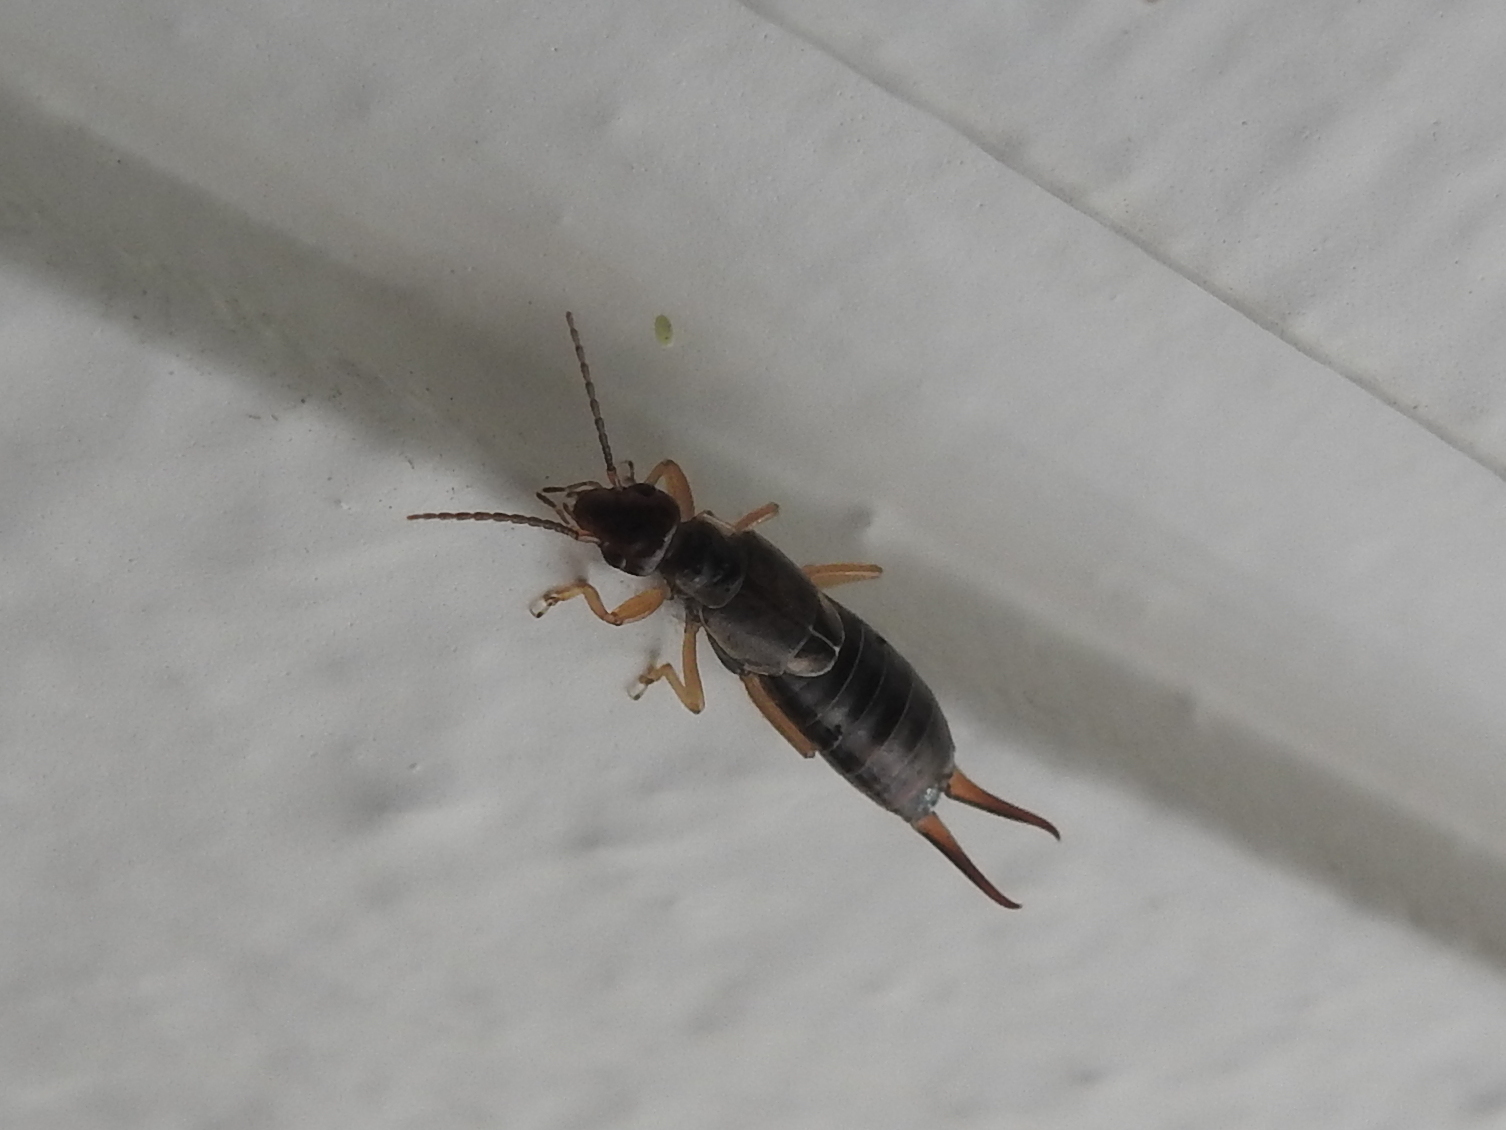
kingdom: Animalia
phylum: Arthropoda
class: Insecta
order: Dermaptera
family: Forficulidae
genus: Forficula
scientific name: Forficula
